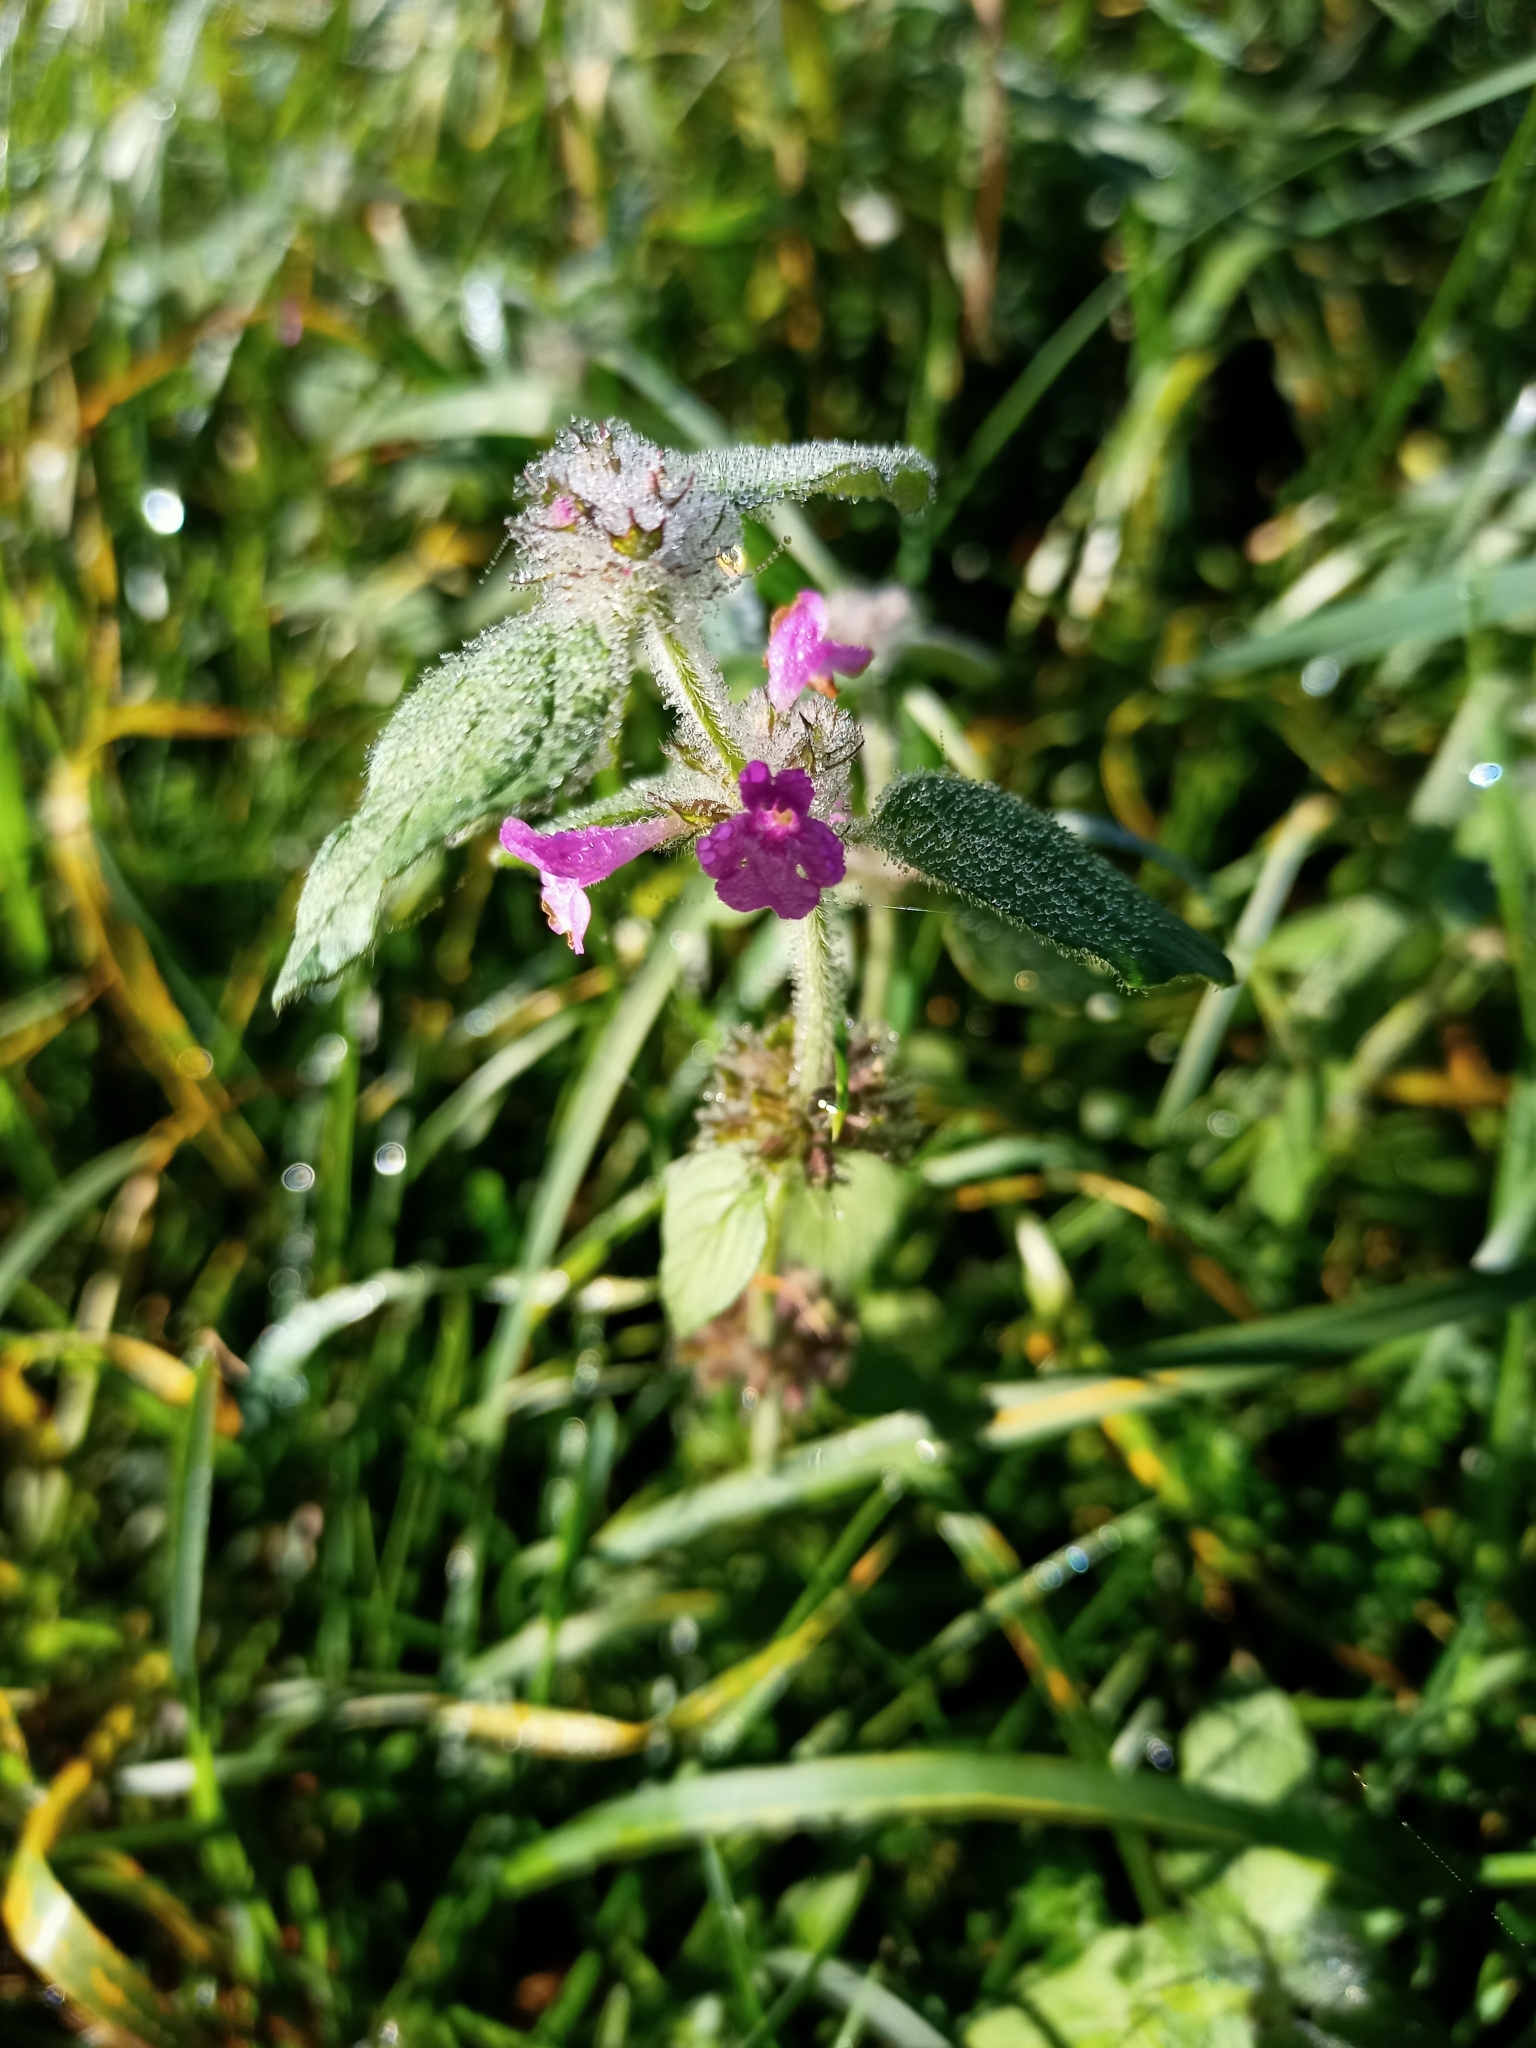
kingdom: Plantae
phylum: Tracheophyta
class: Magnoliopsida
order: Lamiales
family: Lamiaceae
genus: Clinopodium
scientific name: Clinopodium vulgare
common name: Wild basil
